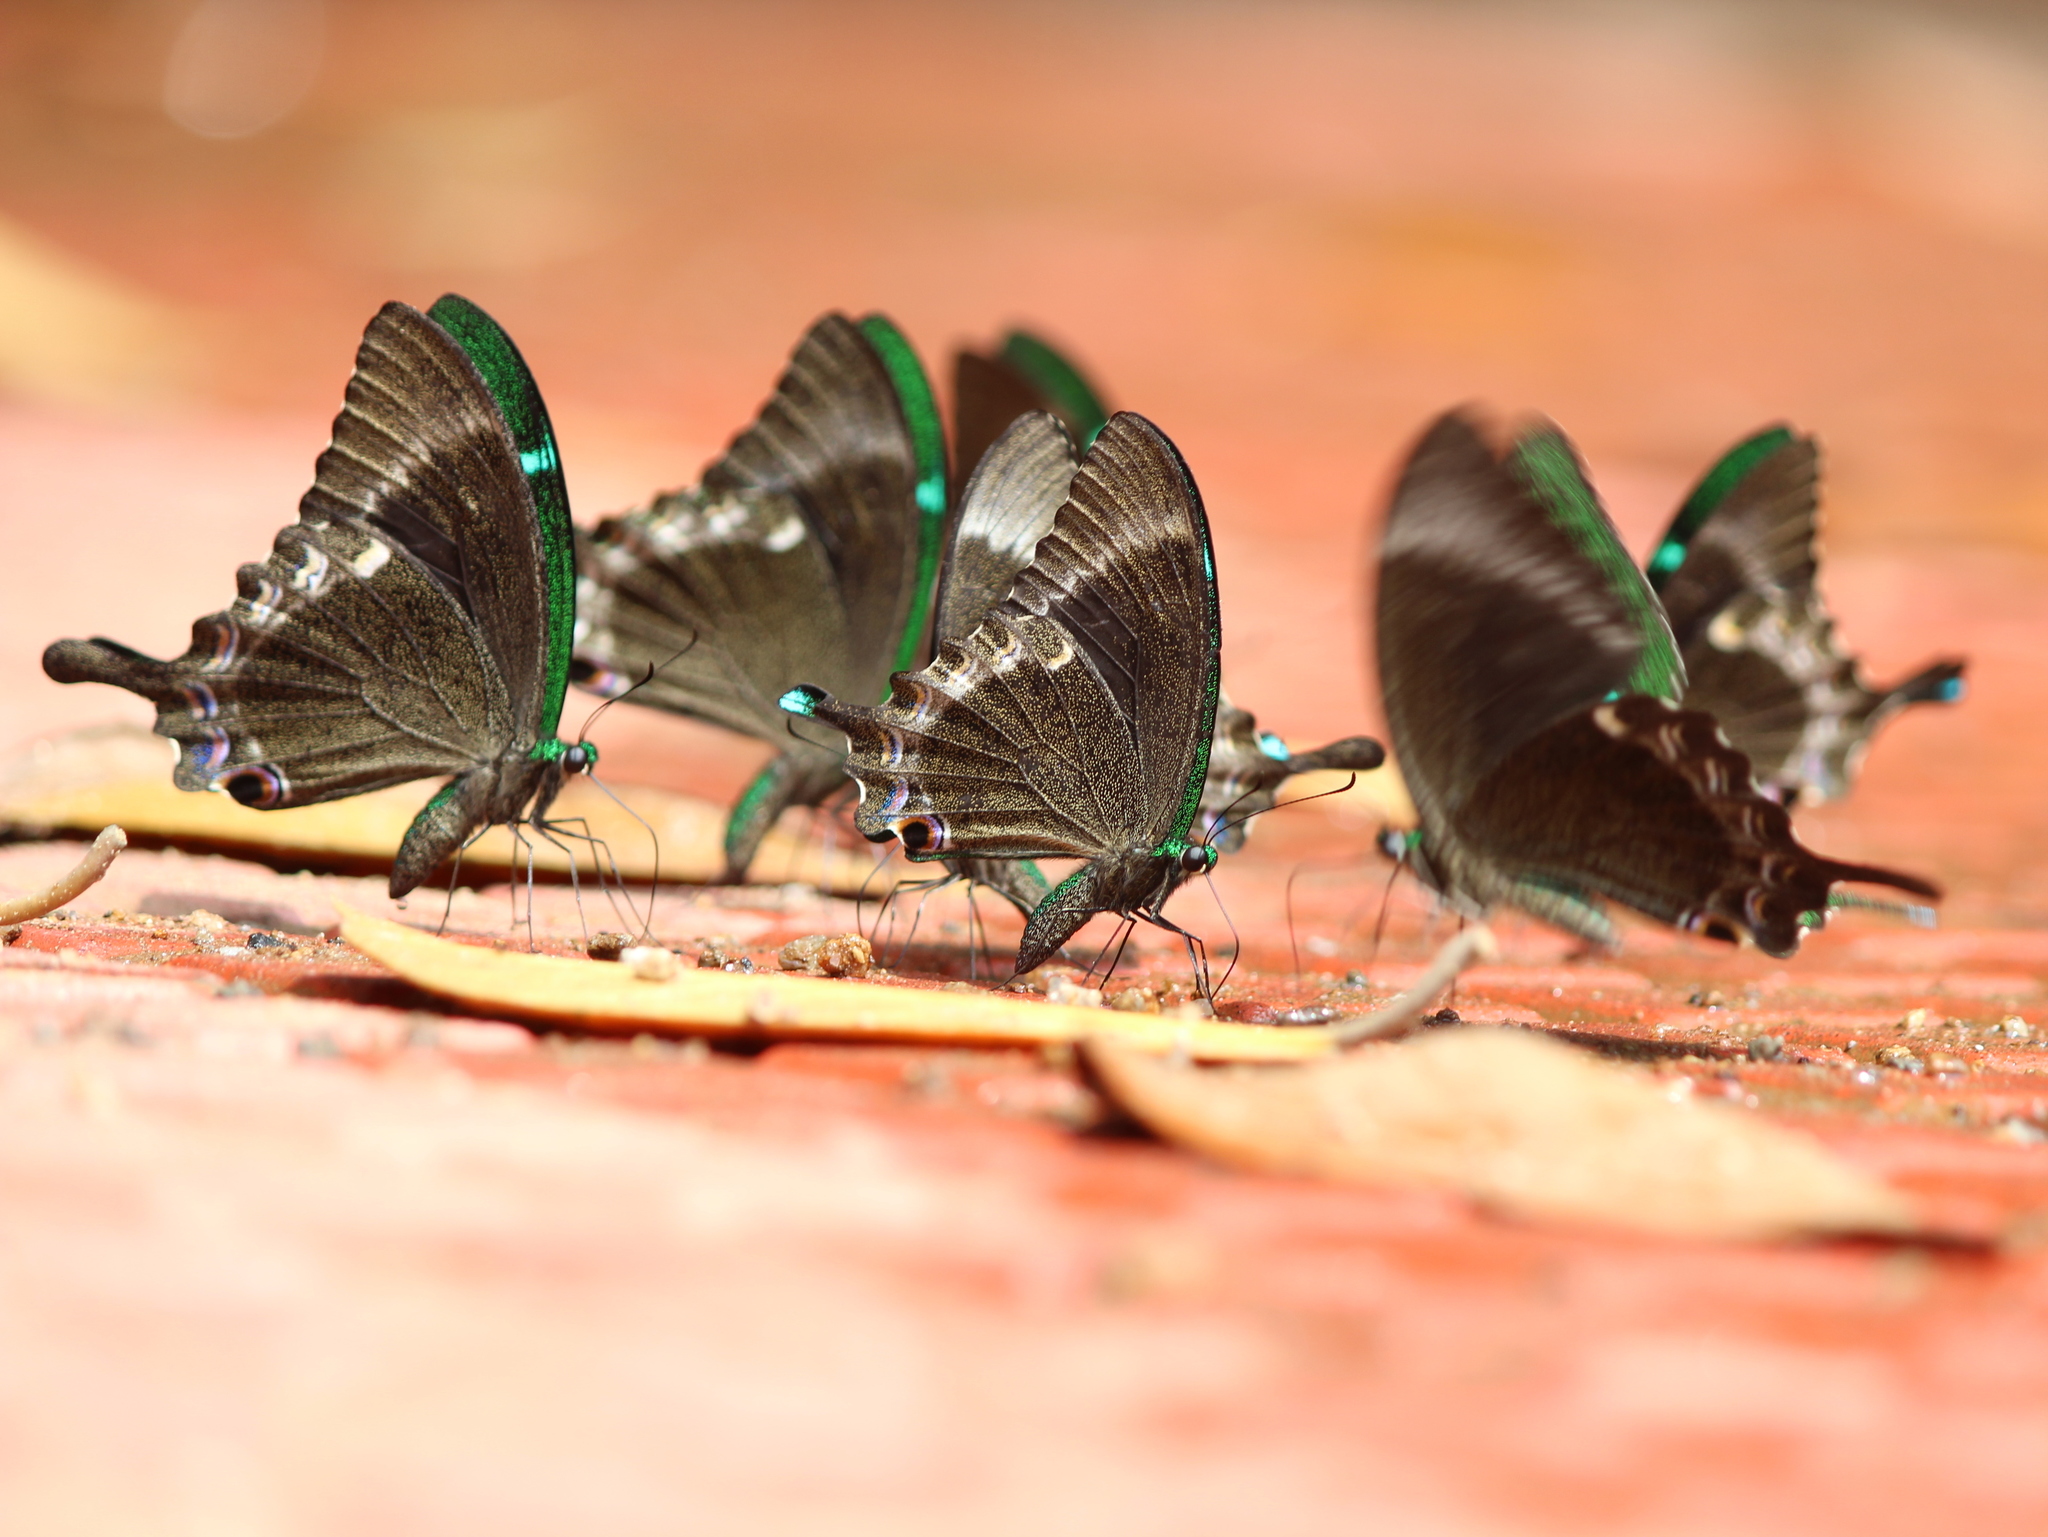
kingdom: Animalia
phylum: Arthropoda
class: Insecta
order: Lepidoptera
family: Papilionidae
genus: Papilio
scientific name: Papilio crino
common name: Common banded peacock
